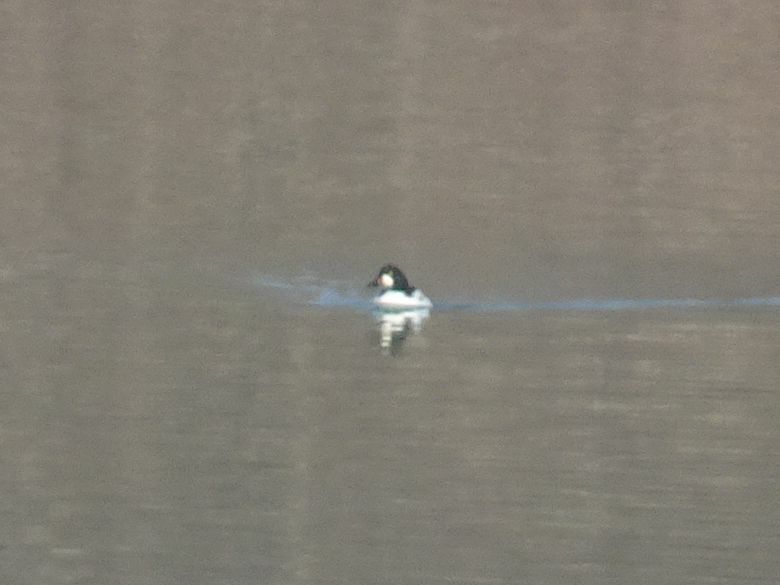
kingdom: Animalia
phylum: Chordata
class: Aves
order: Anseriformes
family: Anatidae
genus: Bucephala
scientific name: Bucephala clangula
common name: Common goldeneye
